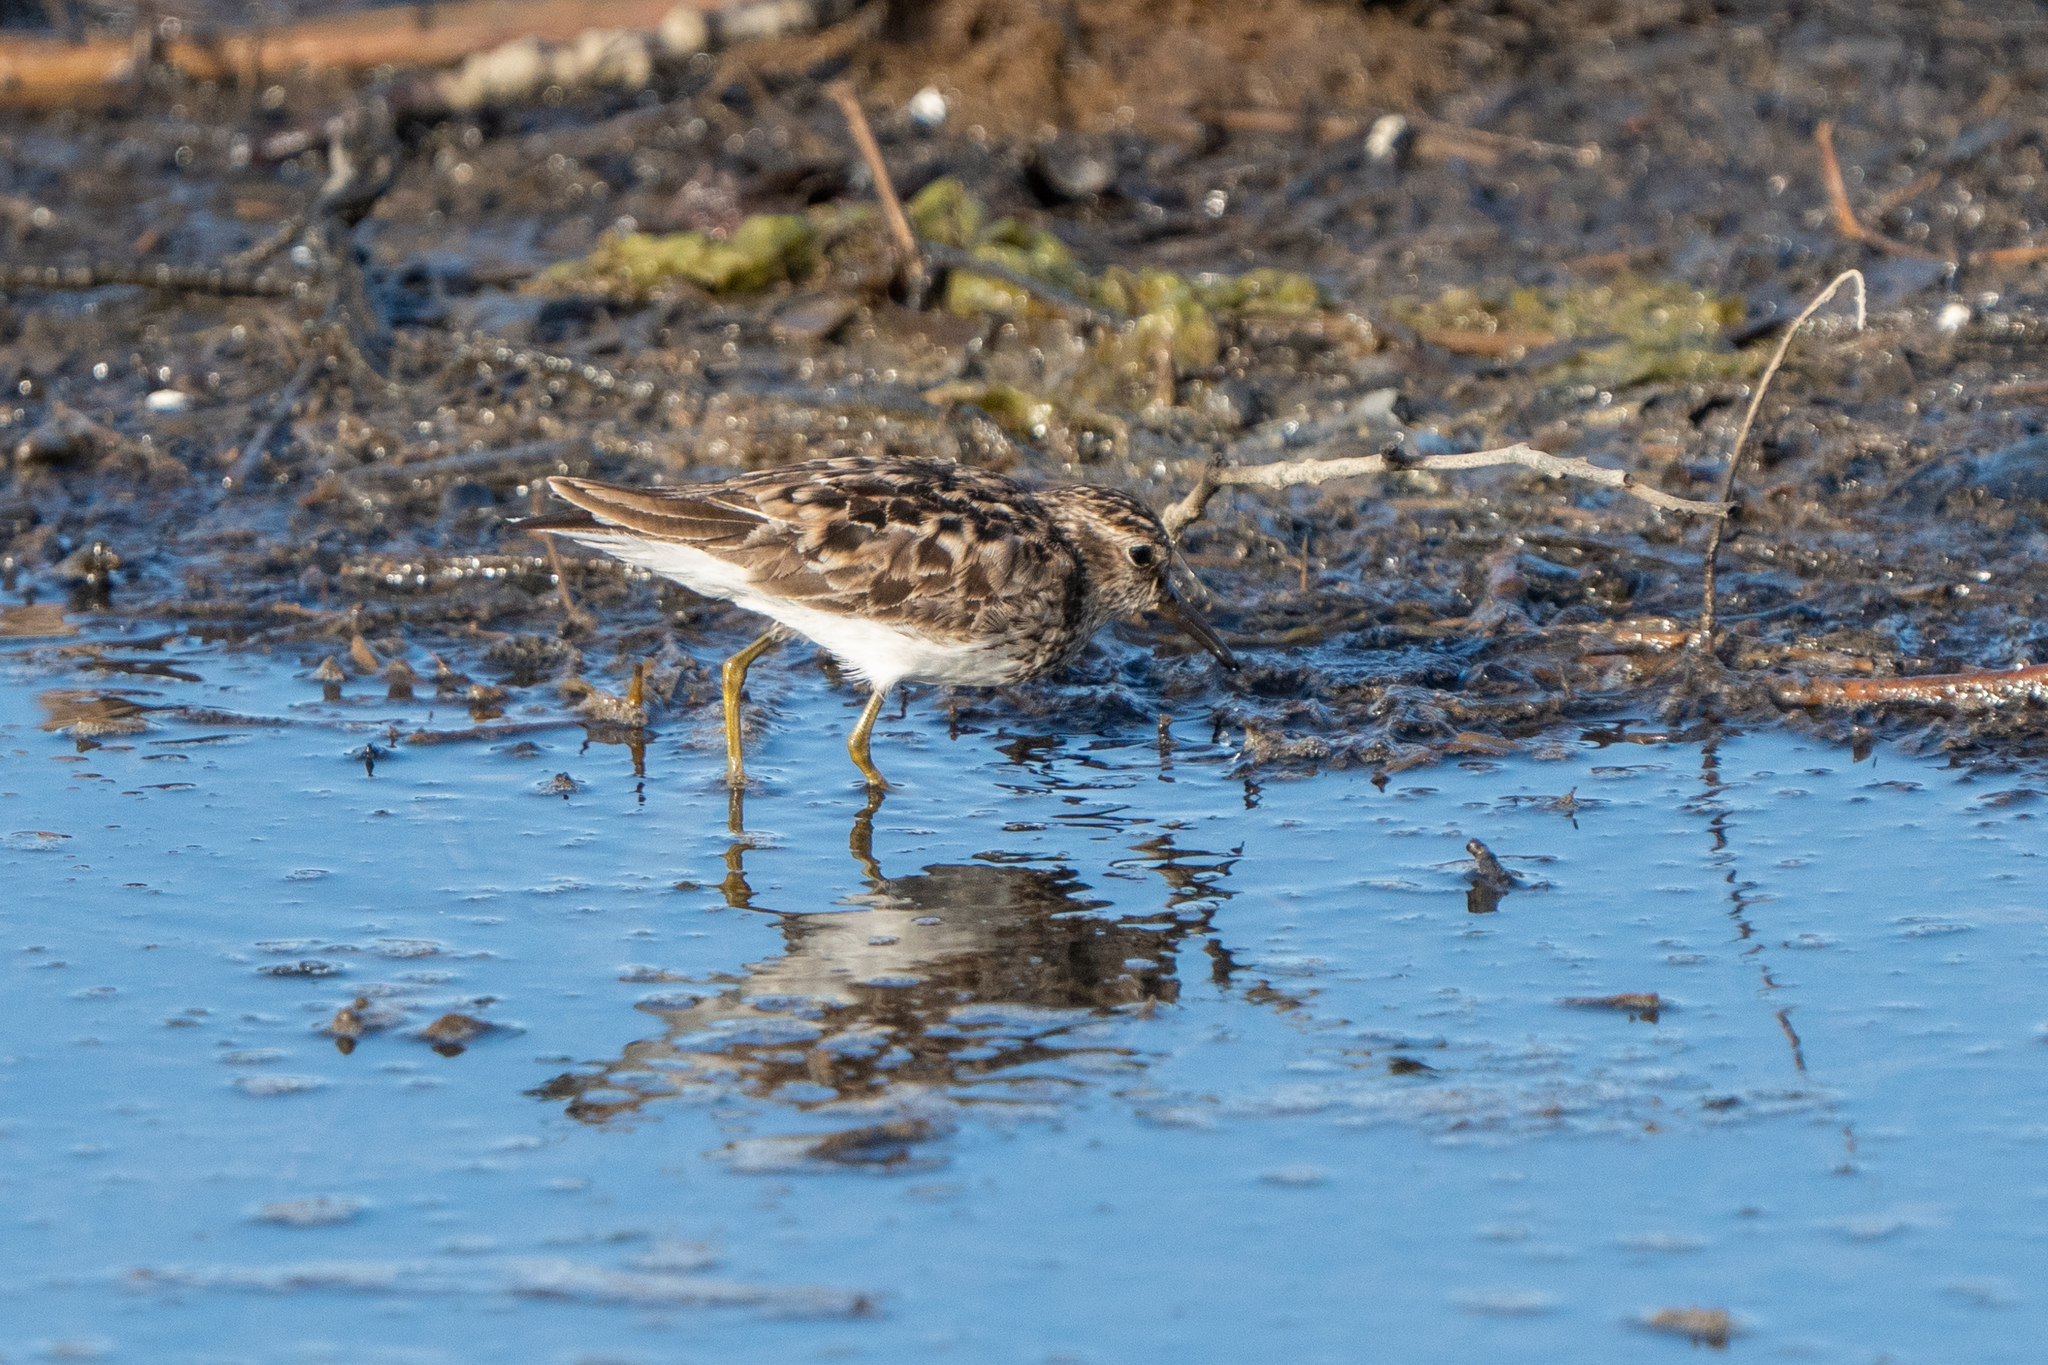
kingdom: Animalia
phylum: Chordata
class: Aves
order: Charadriiformes
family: Scolopacidae
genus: Calidris
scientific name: Calidris minutilla
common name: Least sandpiper
